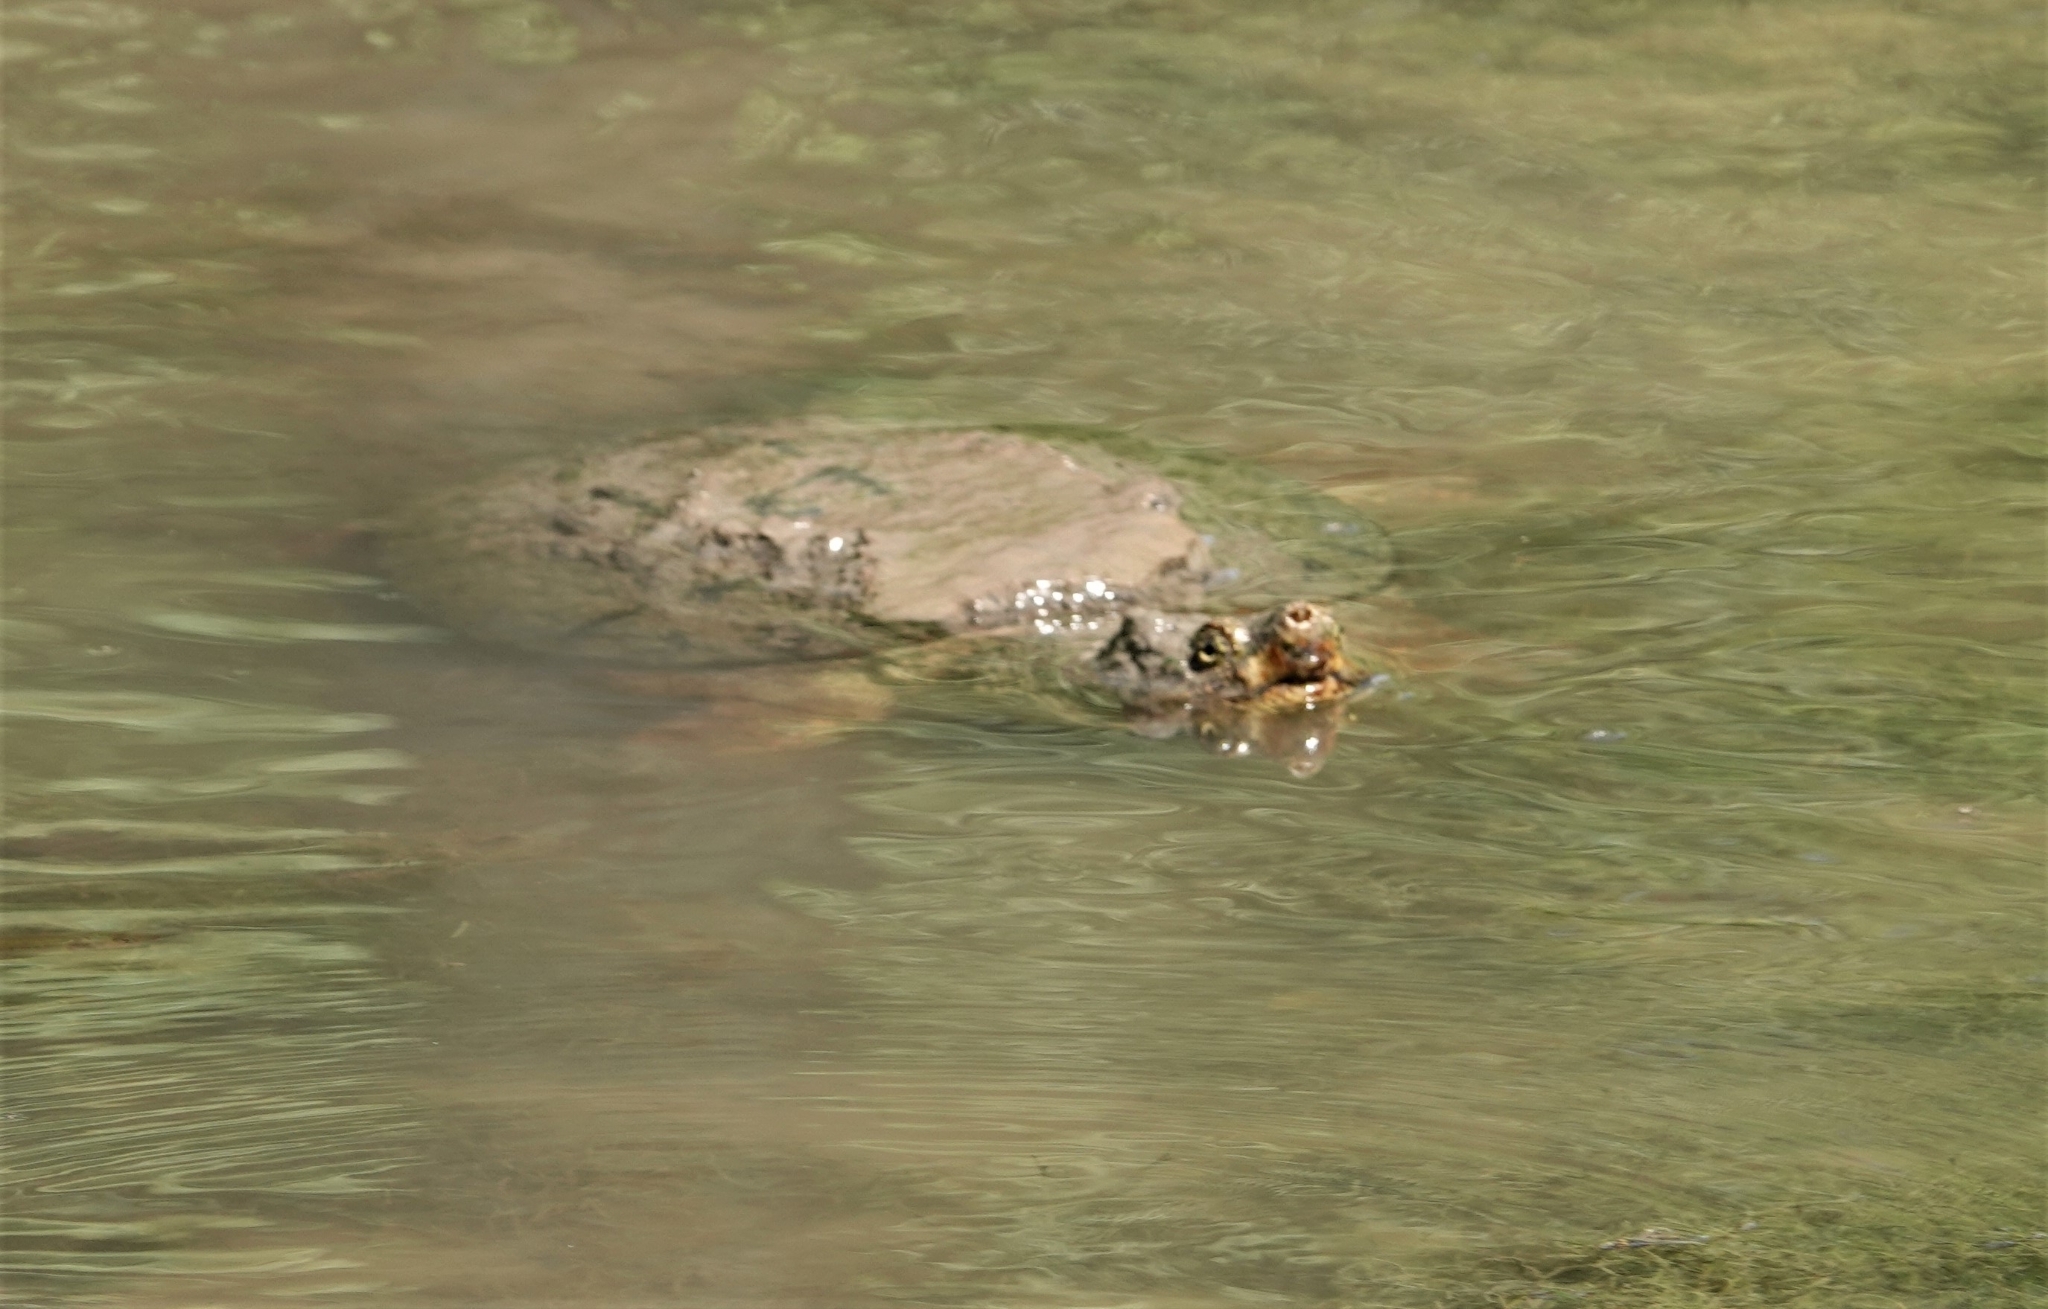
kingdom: Animalia
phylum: Chordata
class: Testudines
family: Chelydridae
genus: Chelydra
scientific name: Chelydra serpentina
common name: Common snapping turtle
